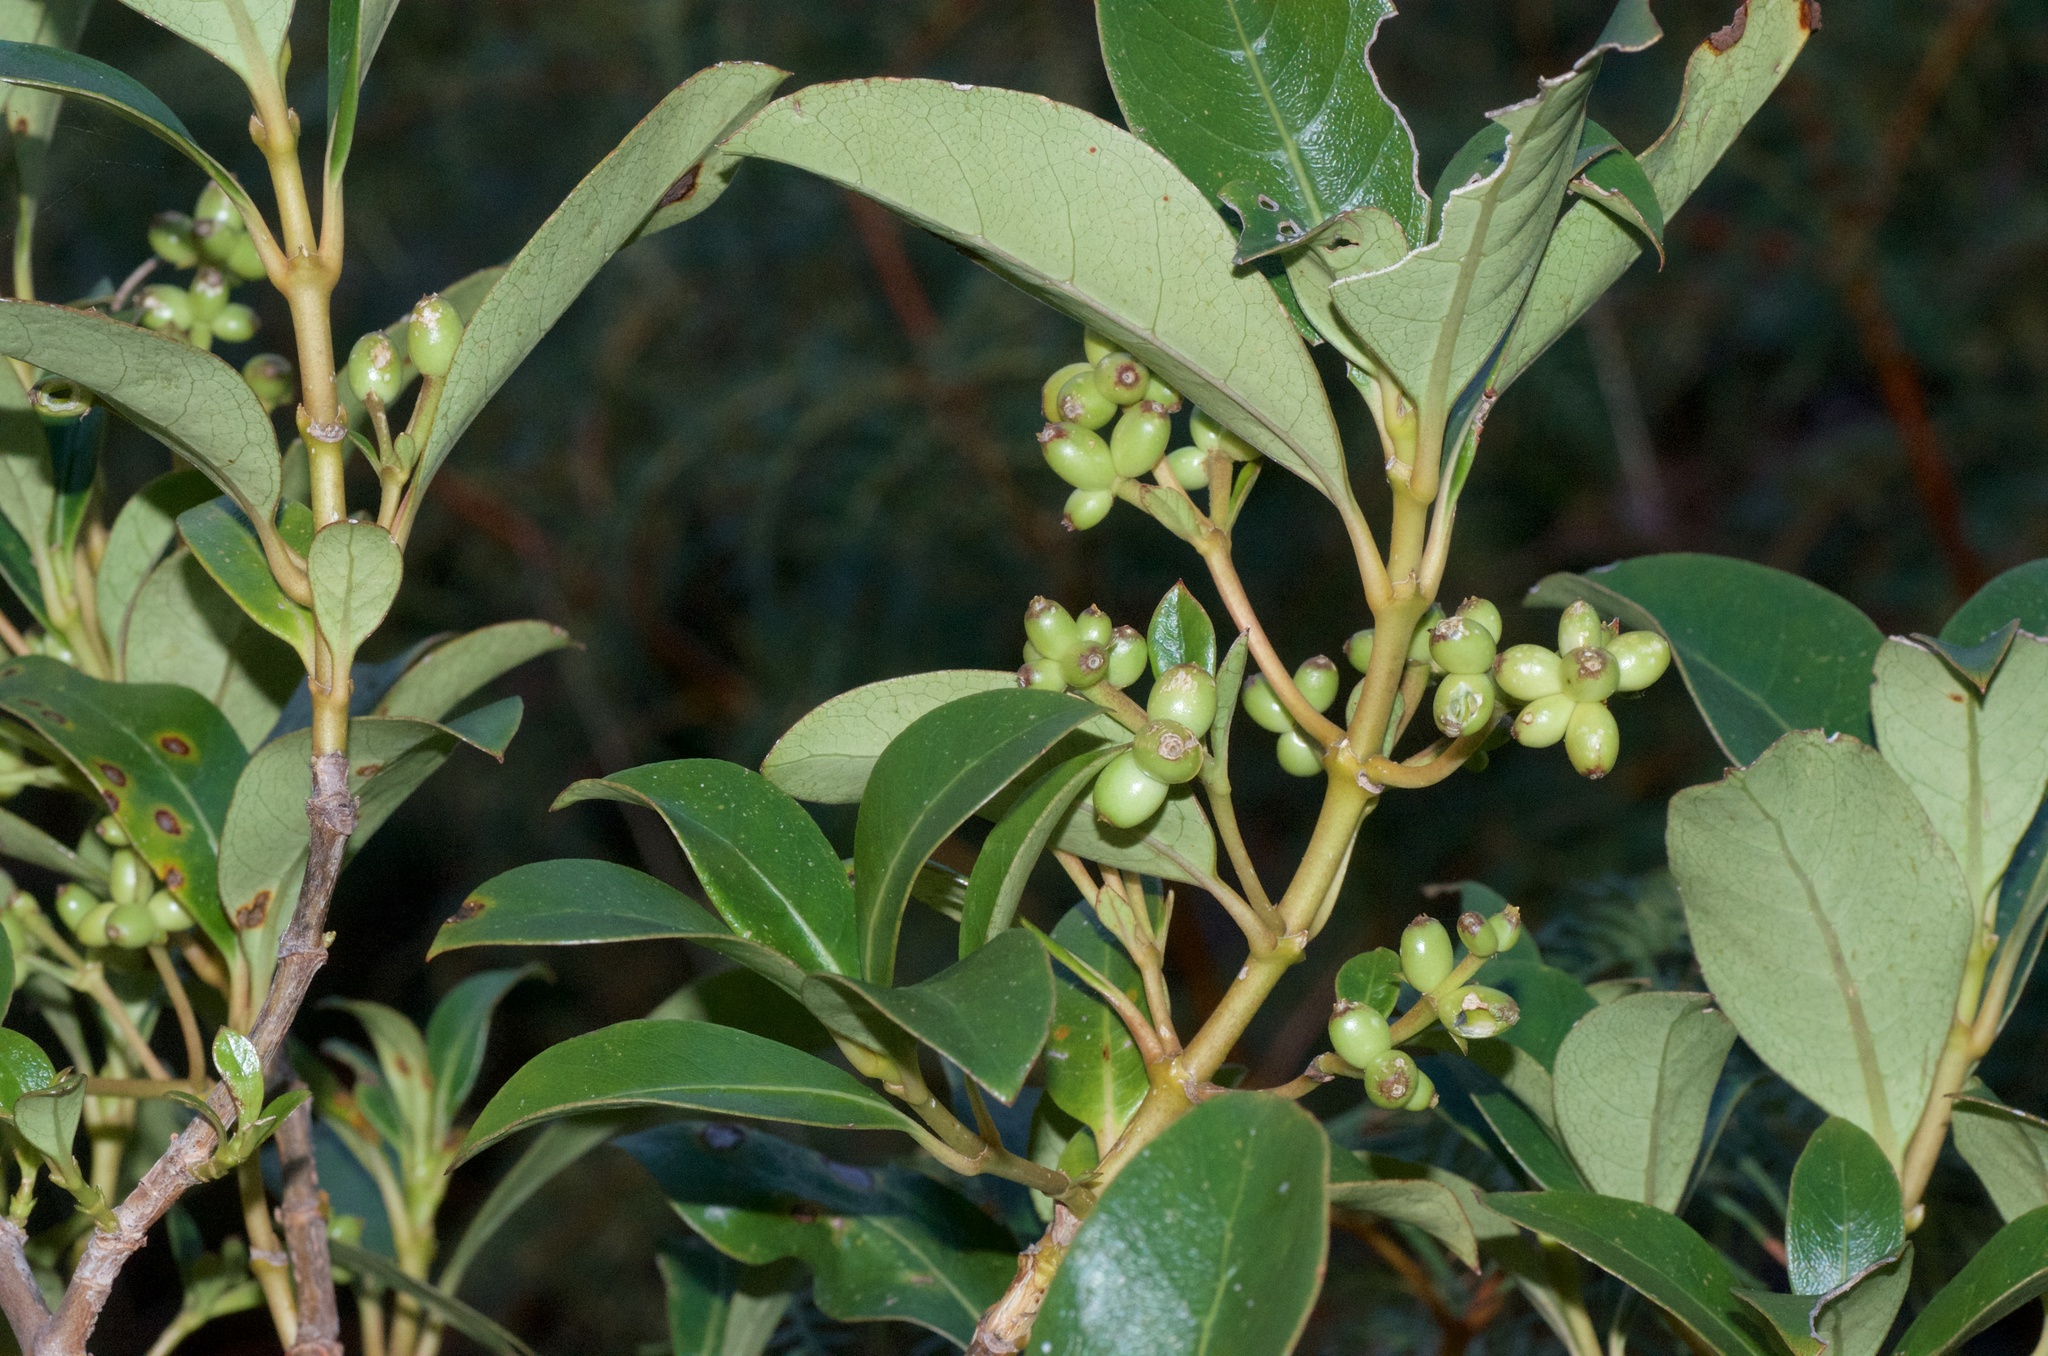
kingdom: Plantae
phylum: Tracheophyta
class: Magnoliopsida
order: Gentianales
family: Rubiaceae
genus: Coprosma
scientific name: Coprosma lucida
